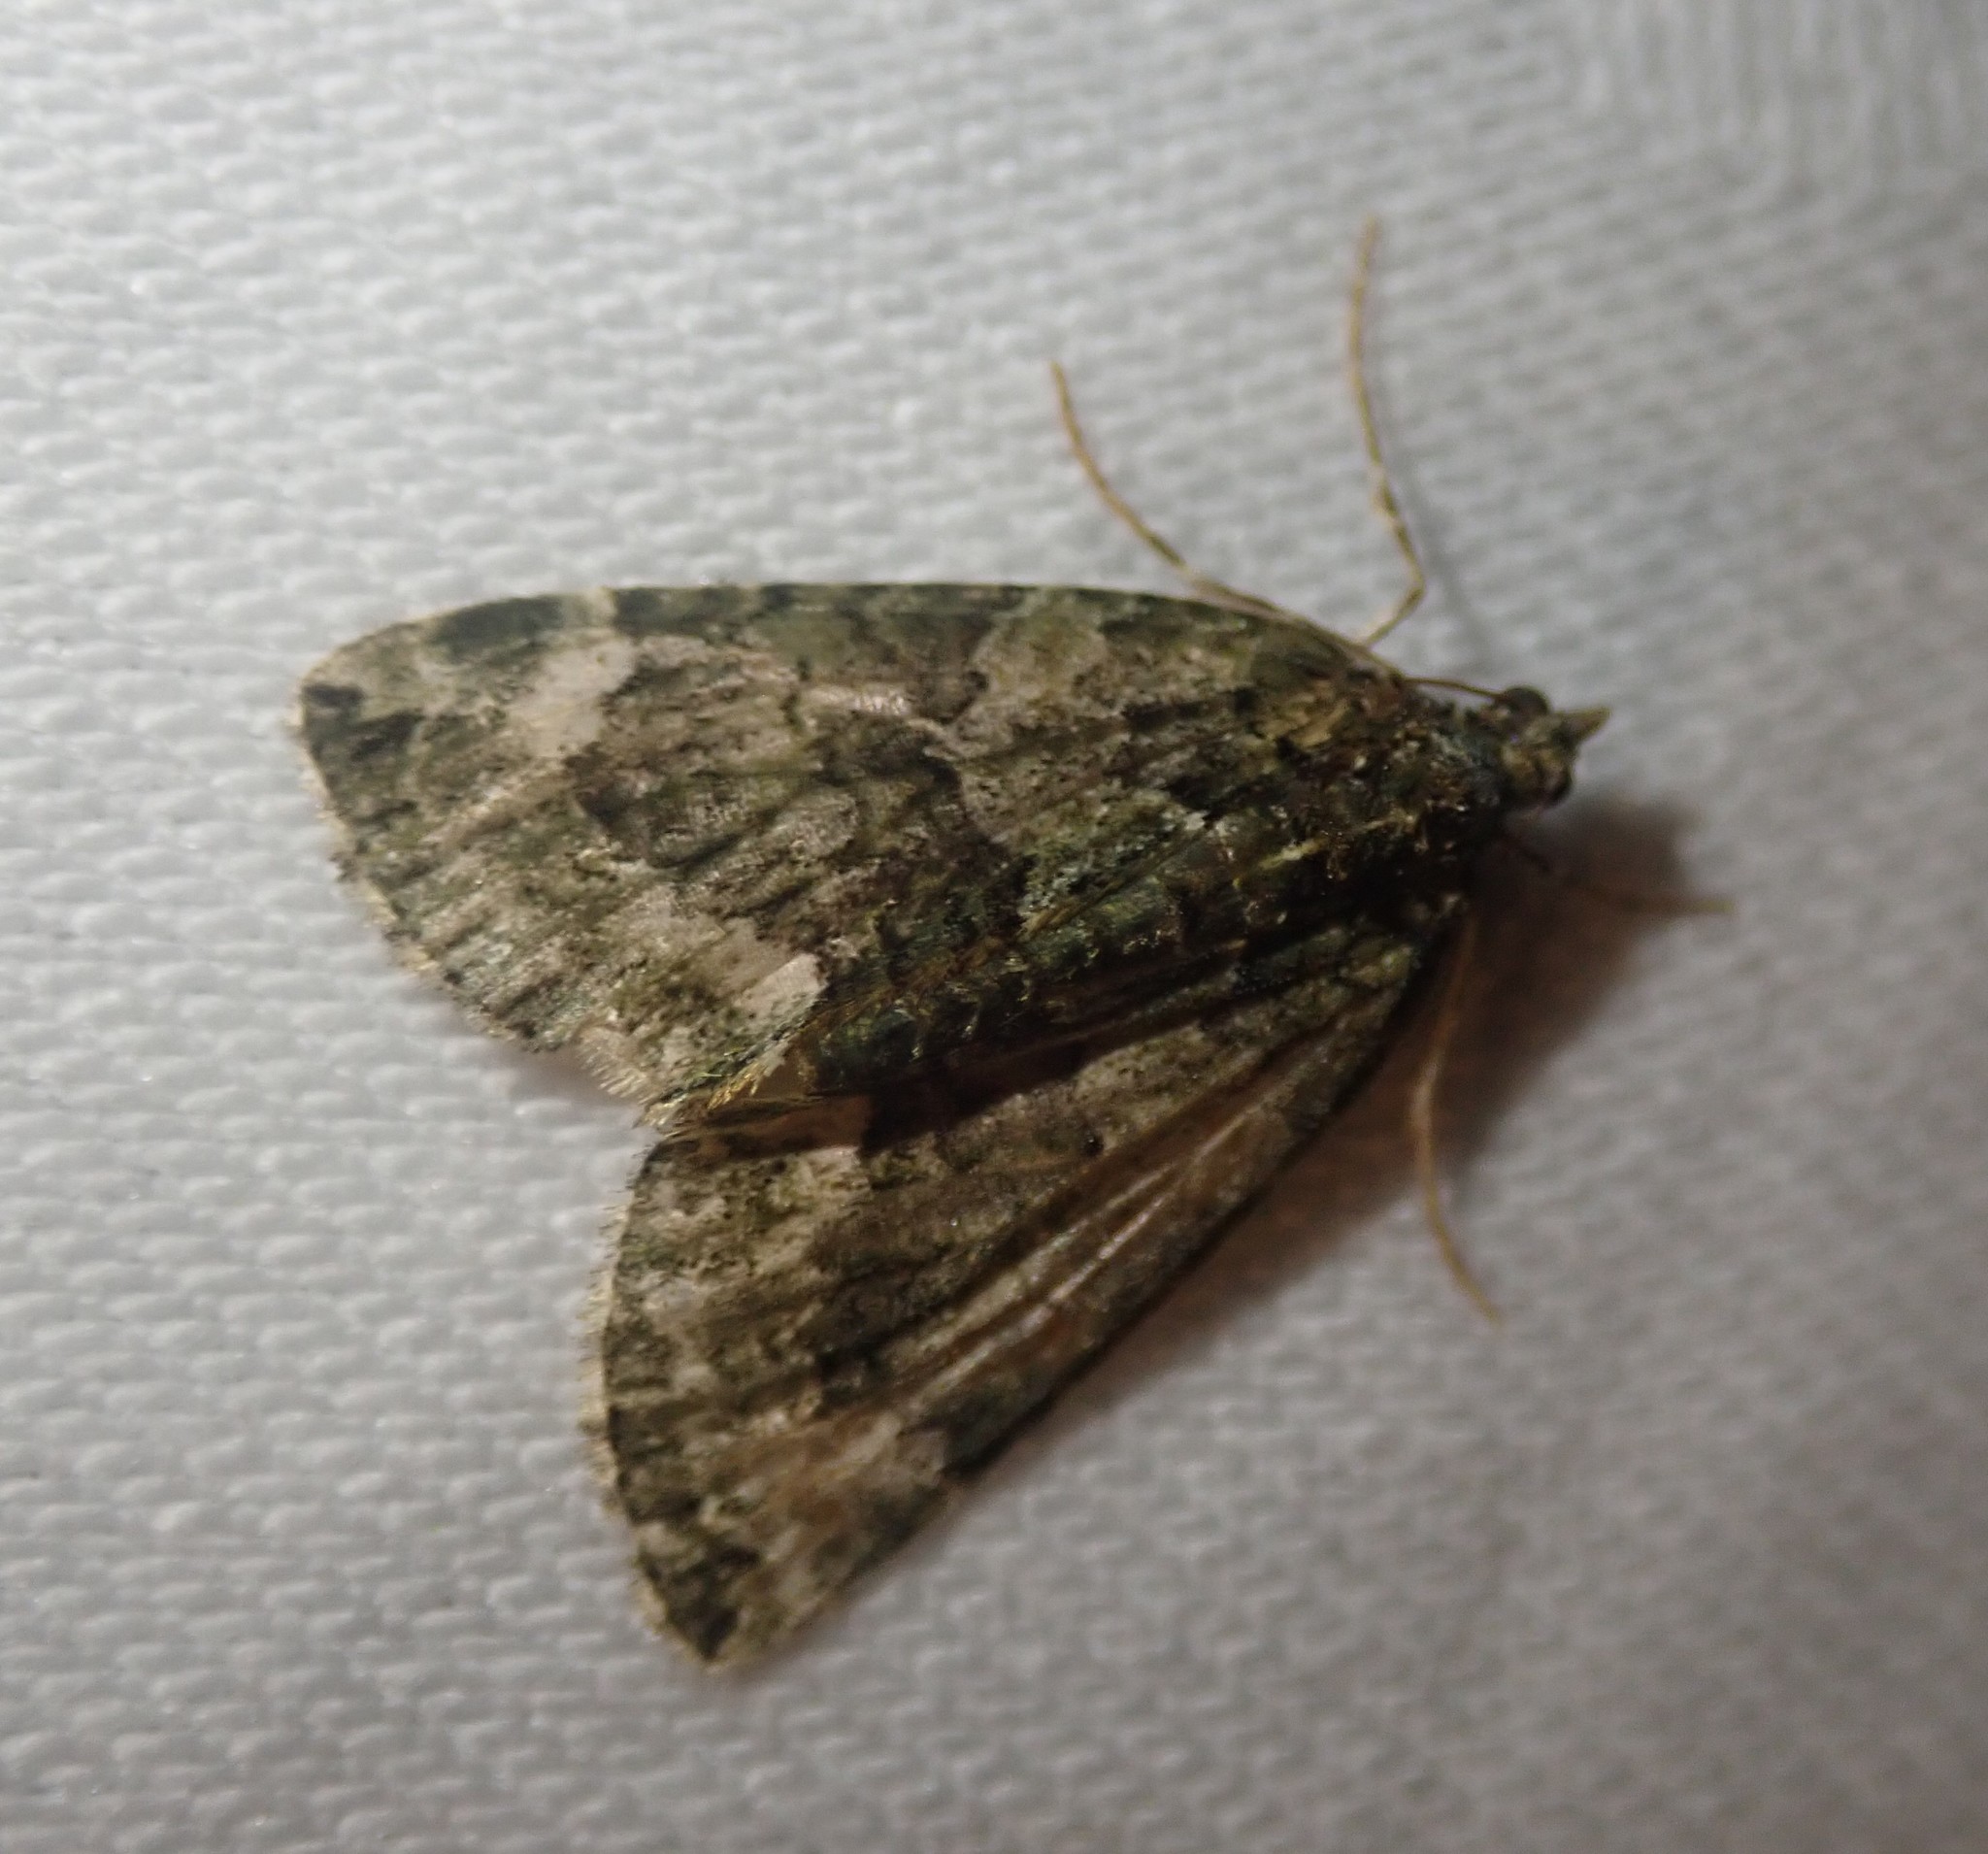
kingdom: Animalia
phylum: Arthropoda
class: Insecta
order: Lepidoptera
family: Geometridae
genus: Chloroclysta
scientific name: Chloroclysta siterata
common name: Red-green carpet
